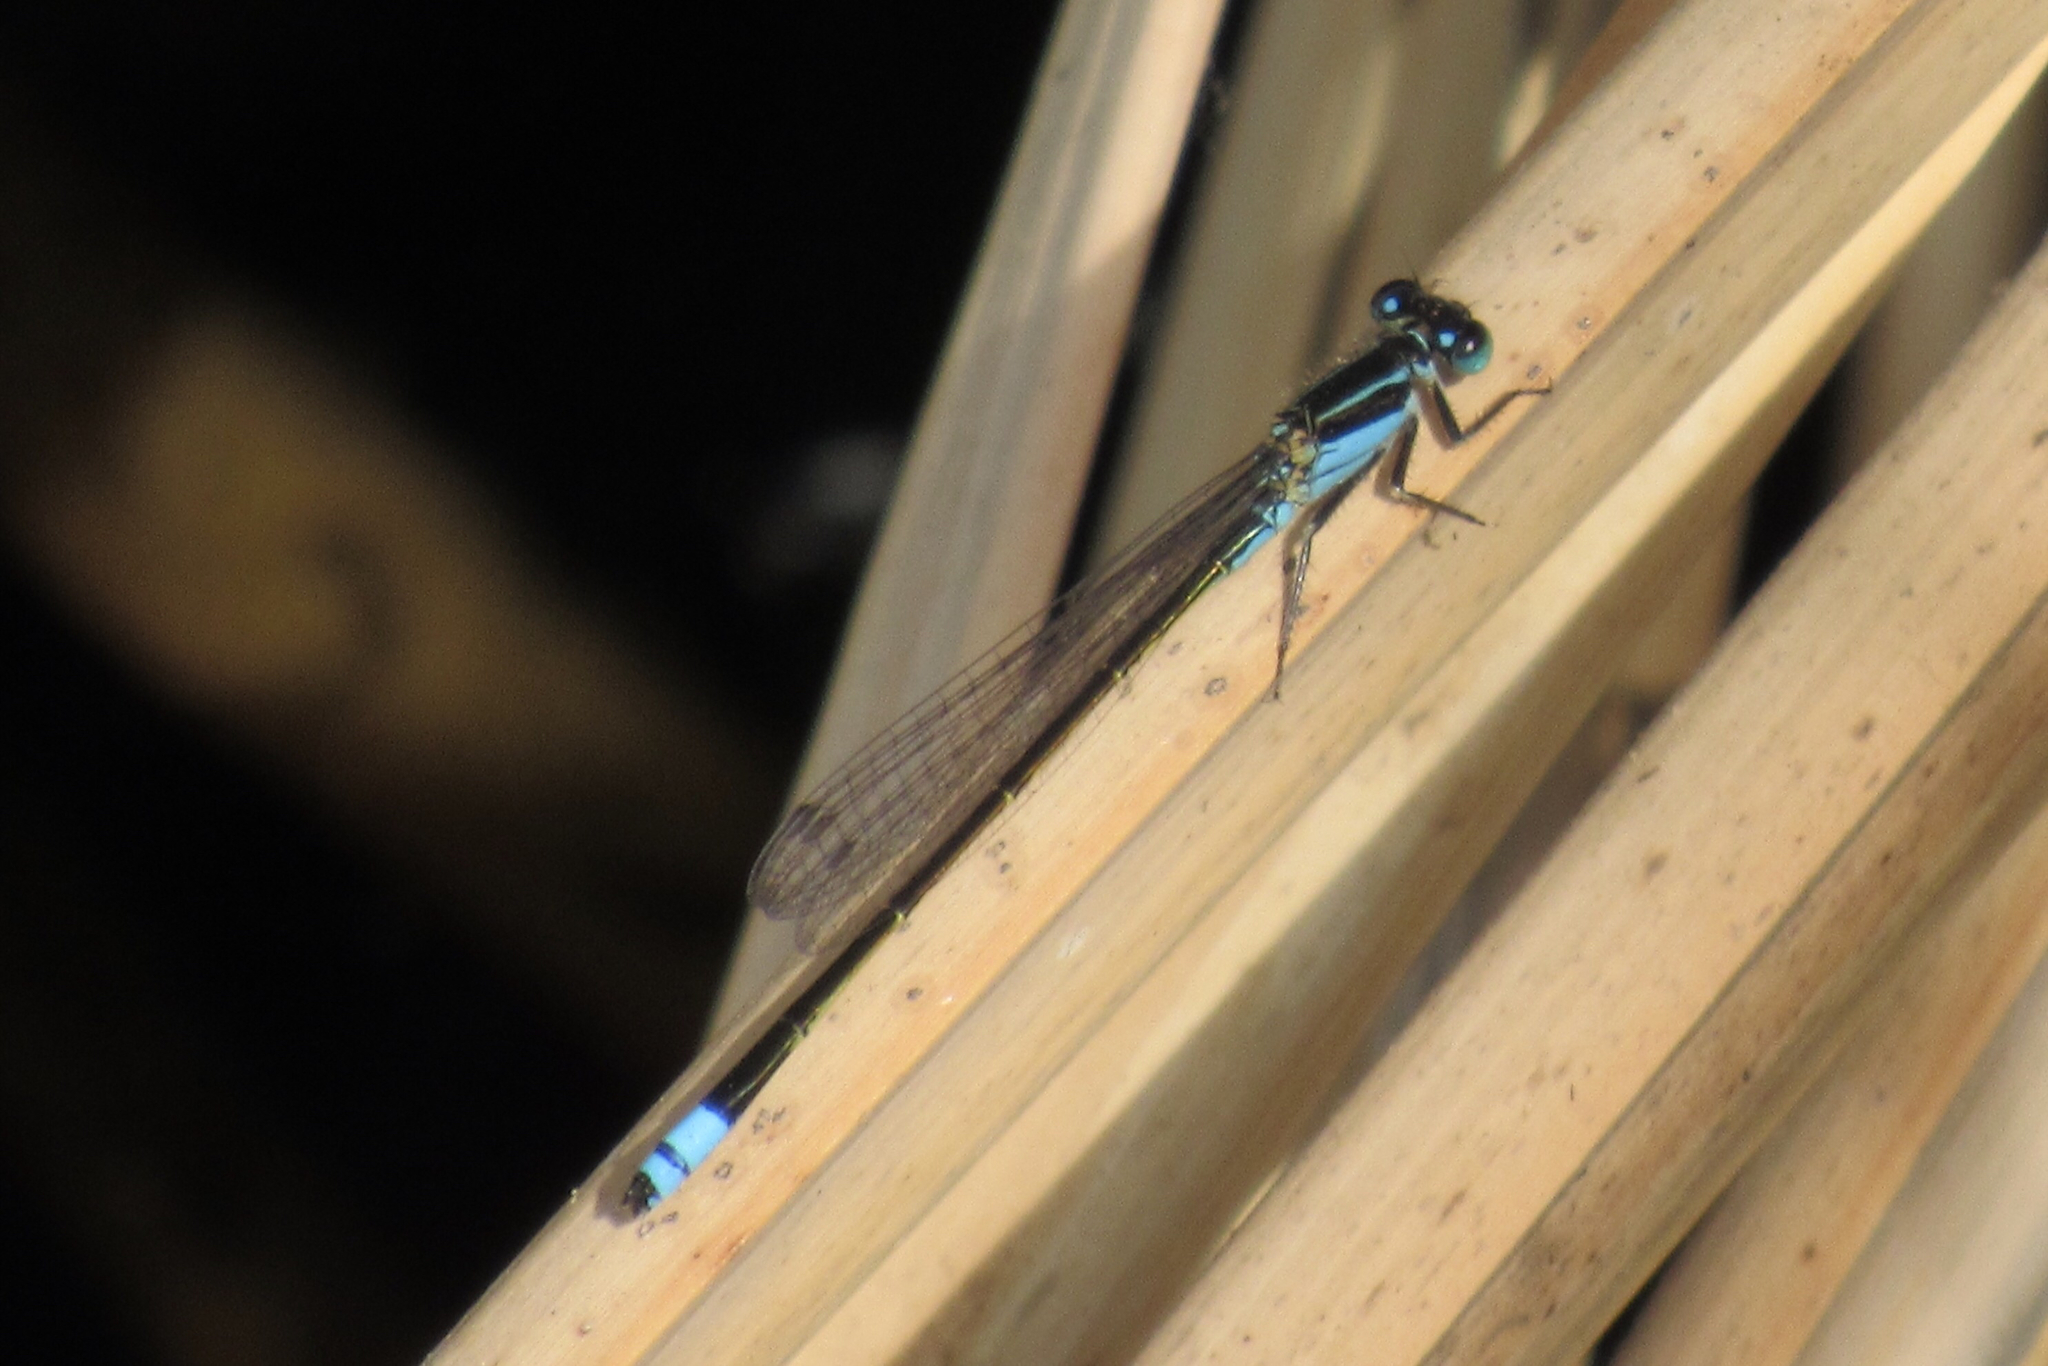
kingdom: Animalia
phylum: Arthropoda
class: Insecta
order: Odonata
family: Coenagrionidae
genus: Ischnura
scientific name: Ischnura ramburii
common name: Rambur's forktail
